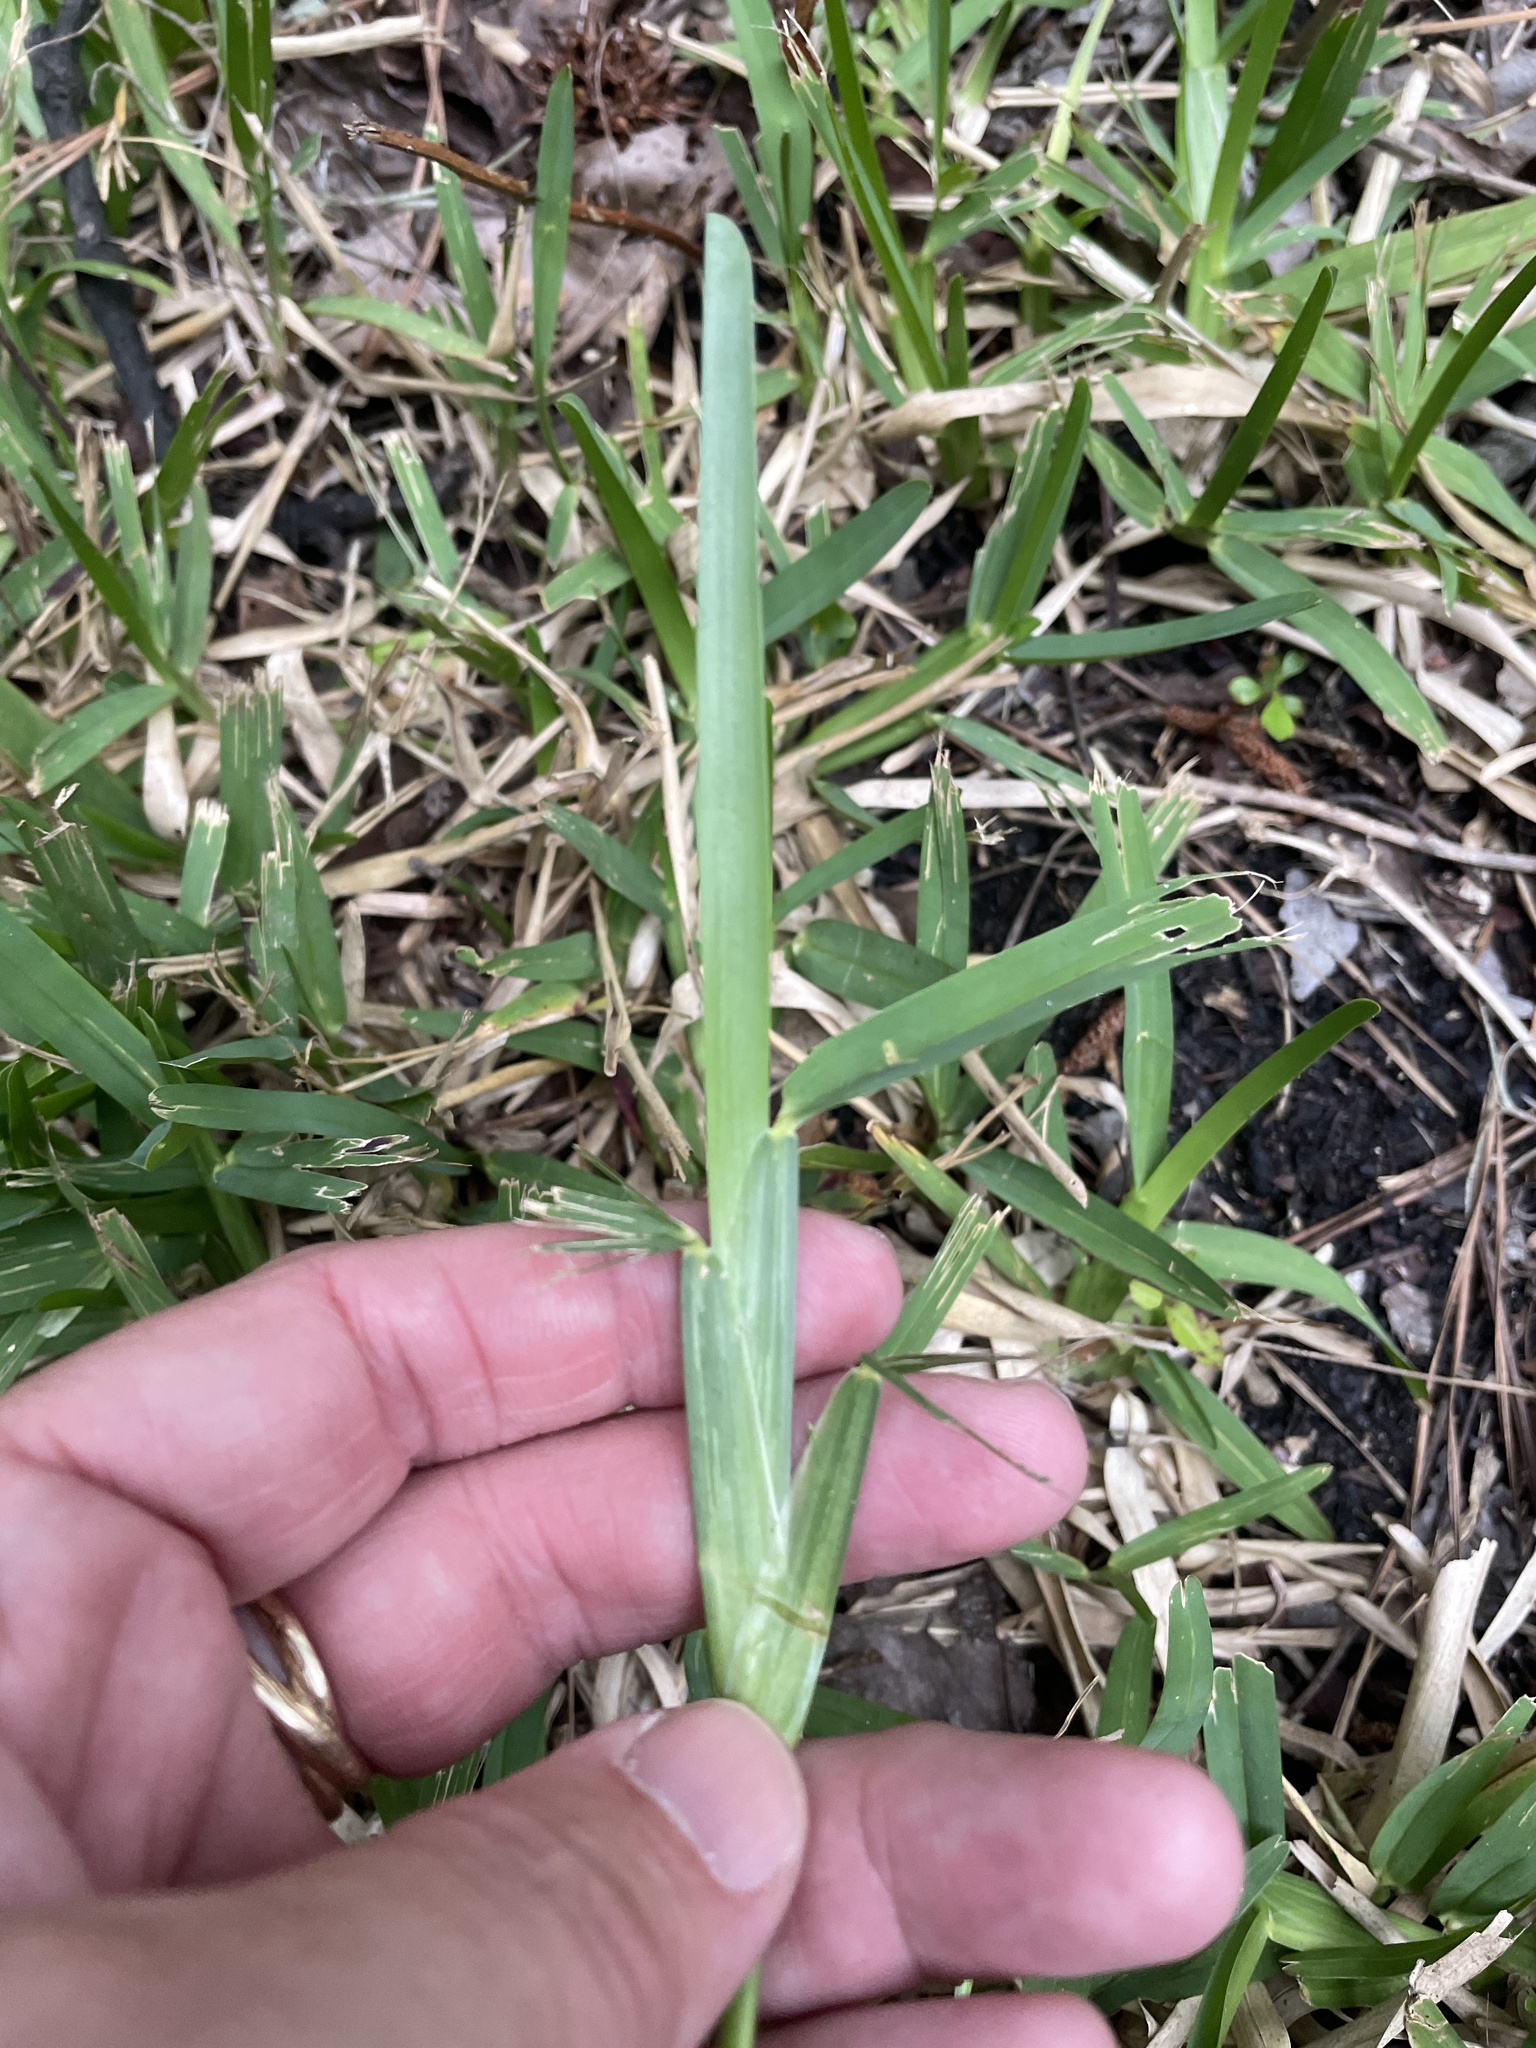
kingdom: Plantae
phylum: Tracheophyta
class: Liliopsida
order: Poales
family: Poaceae
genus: Stenotaphrum
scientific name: Stenotaphrum secundatum
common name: St. augustine grass
